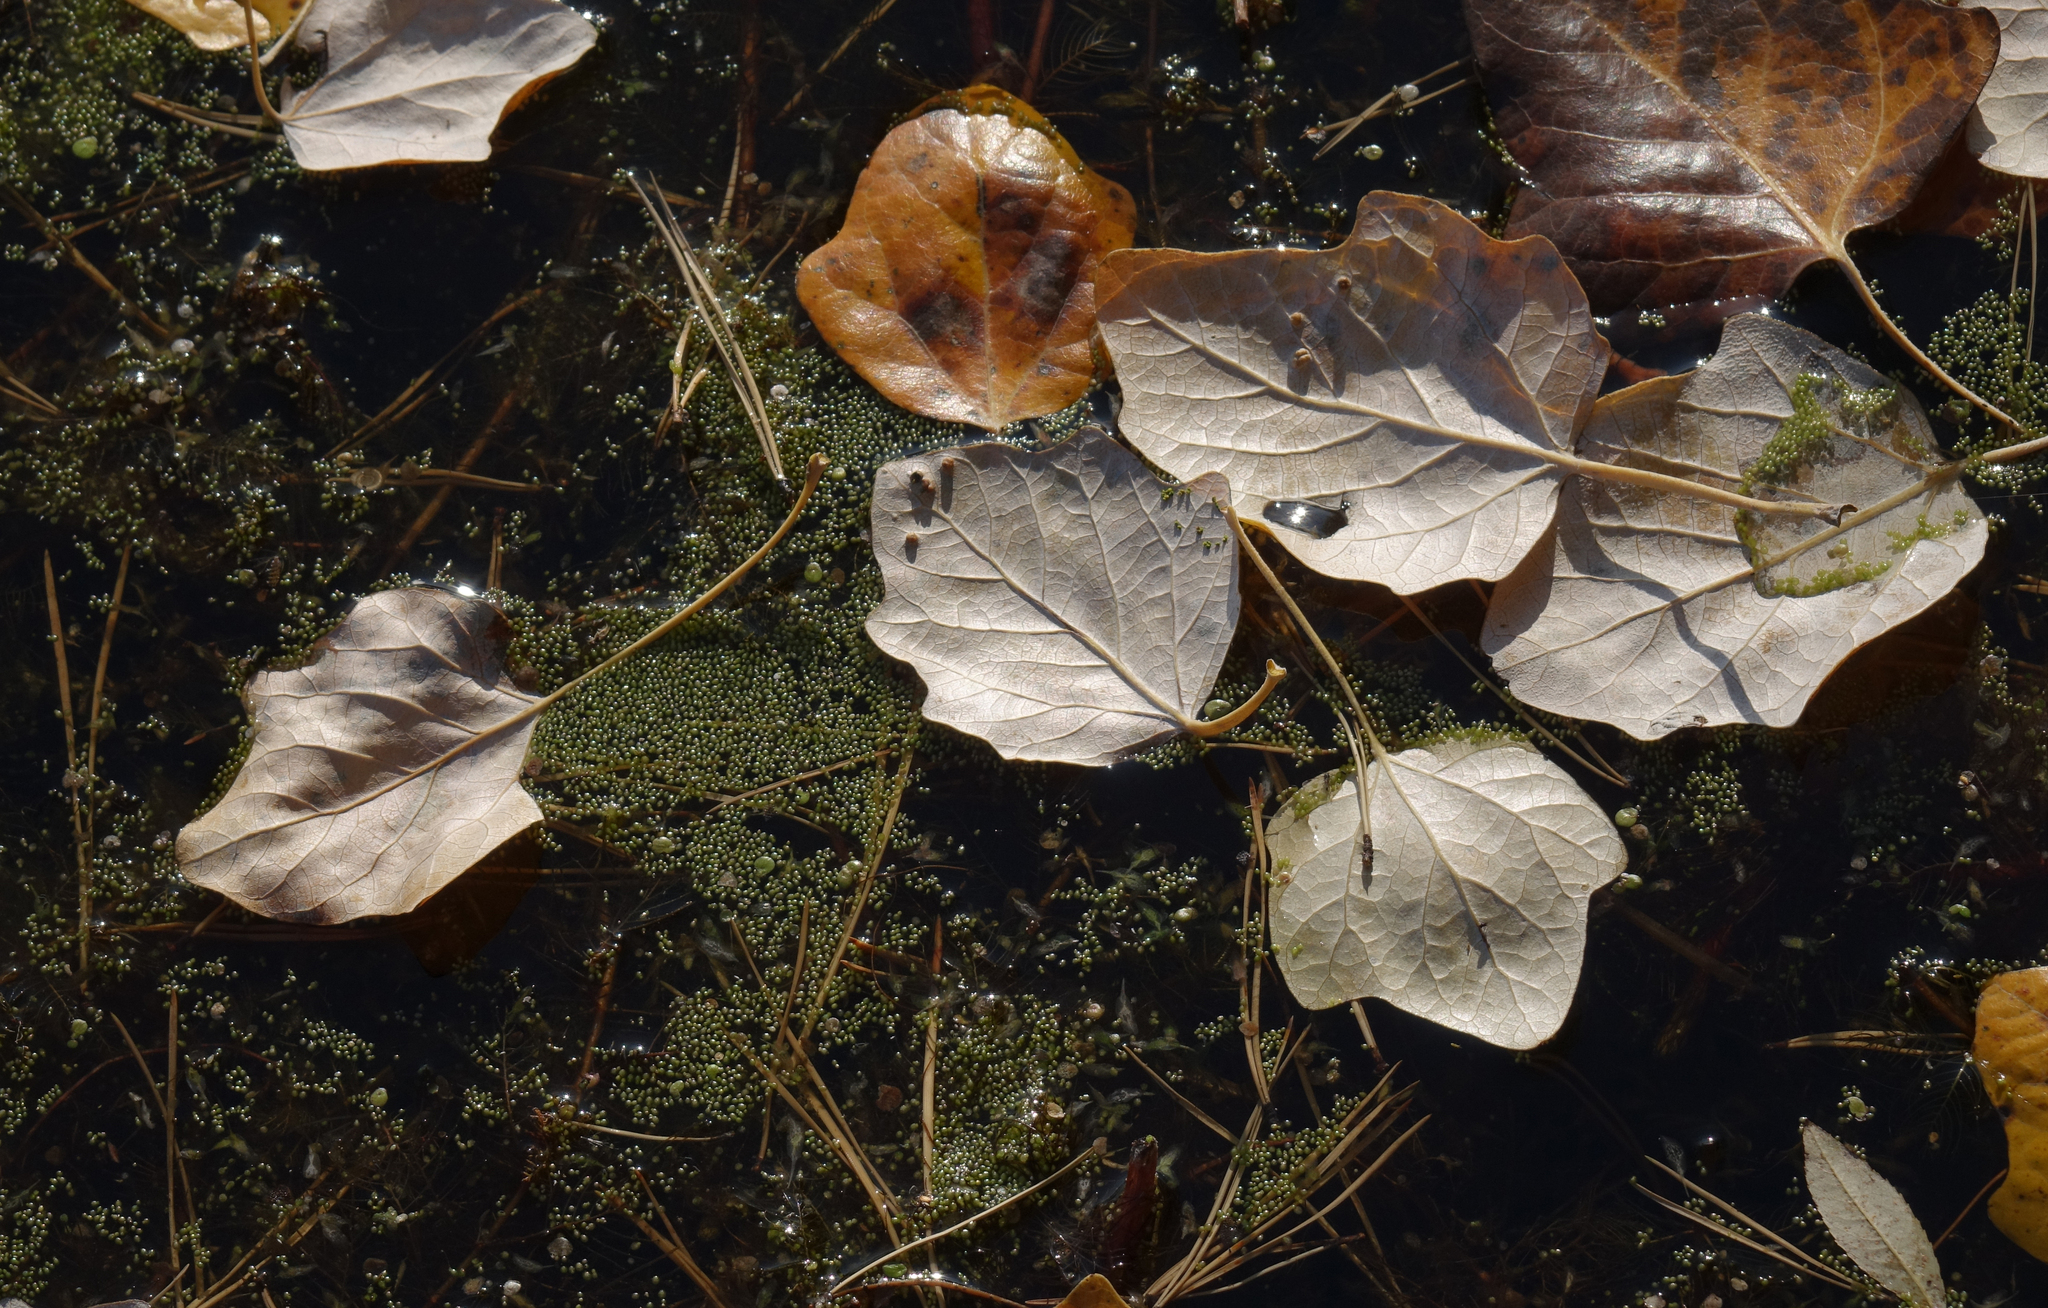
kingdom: Plantae
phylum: Tracheophyta
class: Magnoliopsida
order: Malpighiales
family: Salicaceae
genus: Populus
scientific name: Populus alba
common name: White poplar
